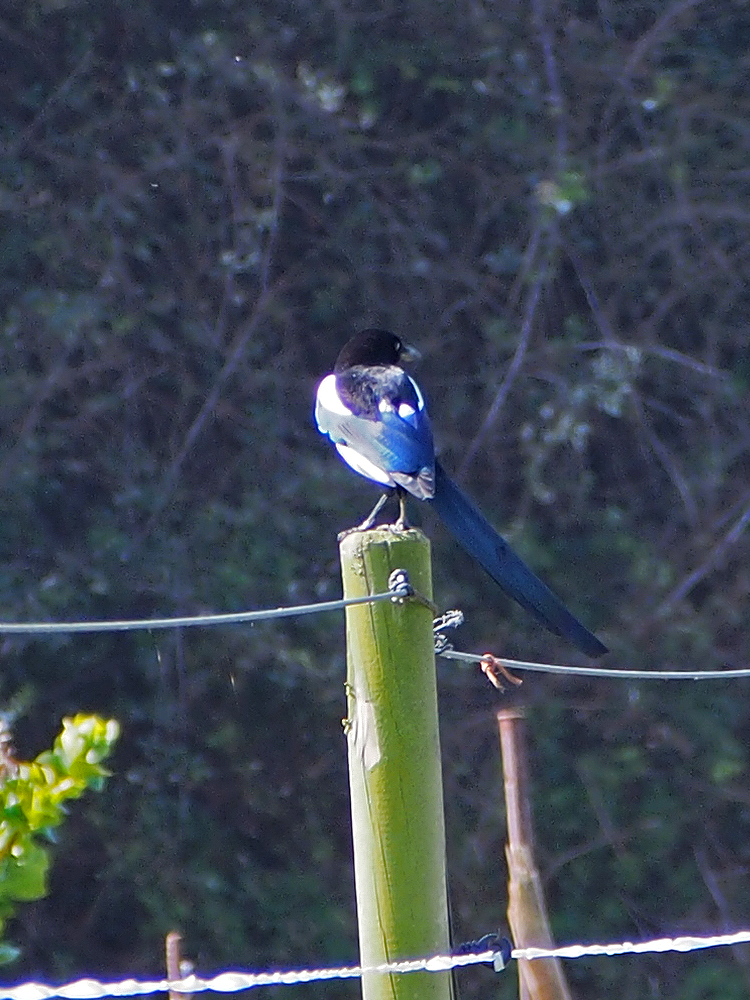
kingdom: Animalia
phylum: Chordata
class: Aves
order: Passeriformes
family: Corvidae
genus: Pica
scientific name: Pica pica
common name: Eurasian magpie
